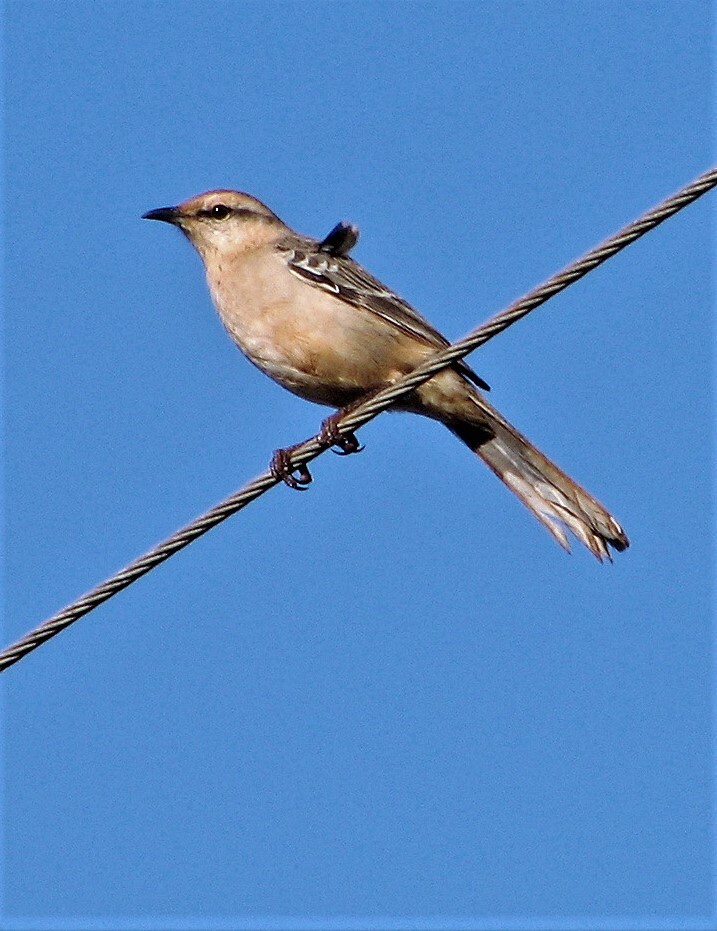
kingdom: Animalia
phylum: Chordata
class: Aves
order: Passeriformes
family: Mimidae
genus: Mimus
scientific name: Mimus saturninus
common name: Chalk-browed mockingbird
